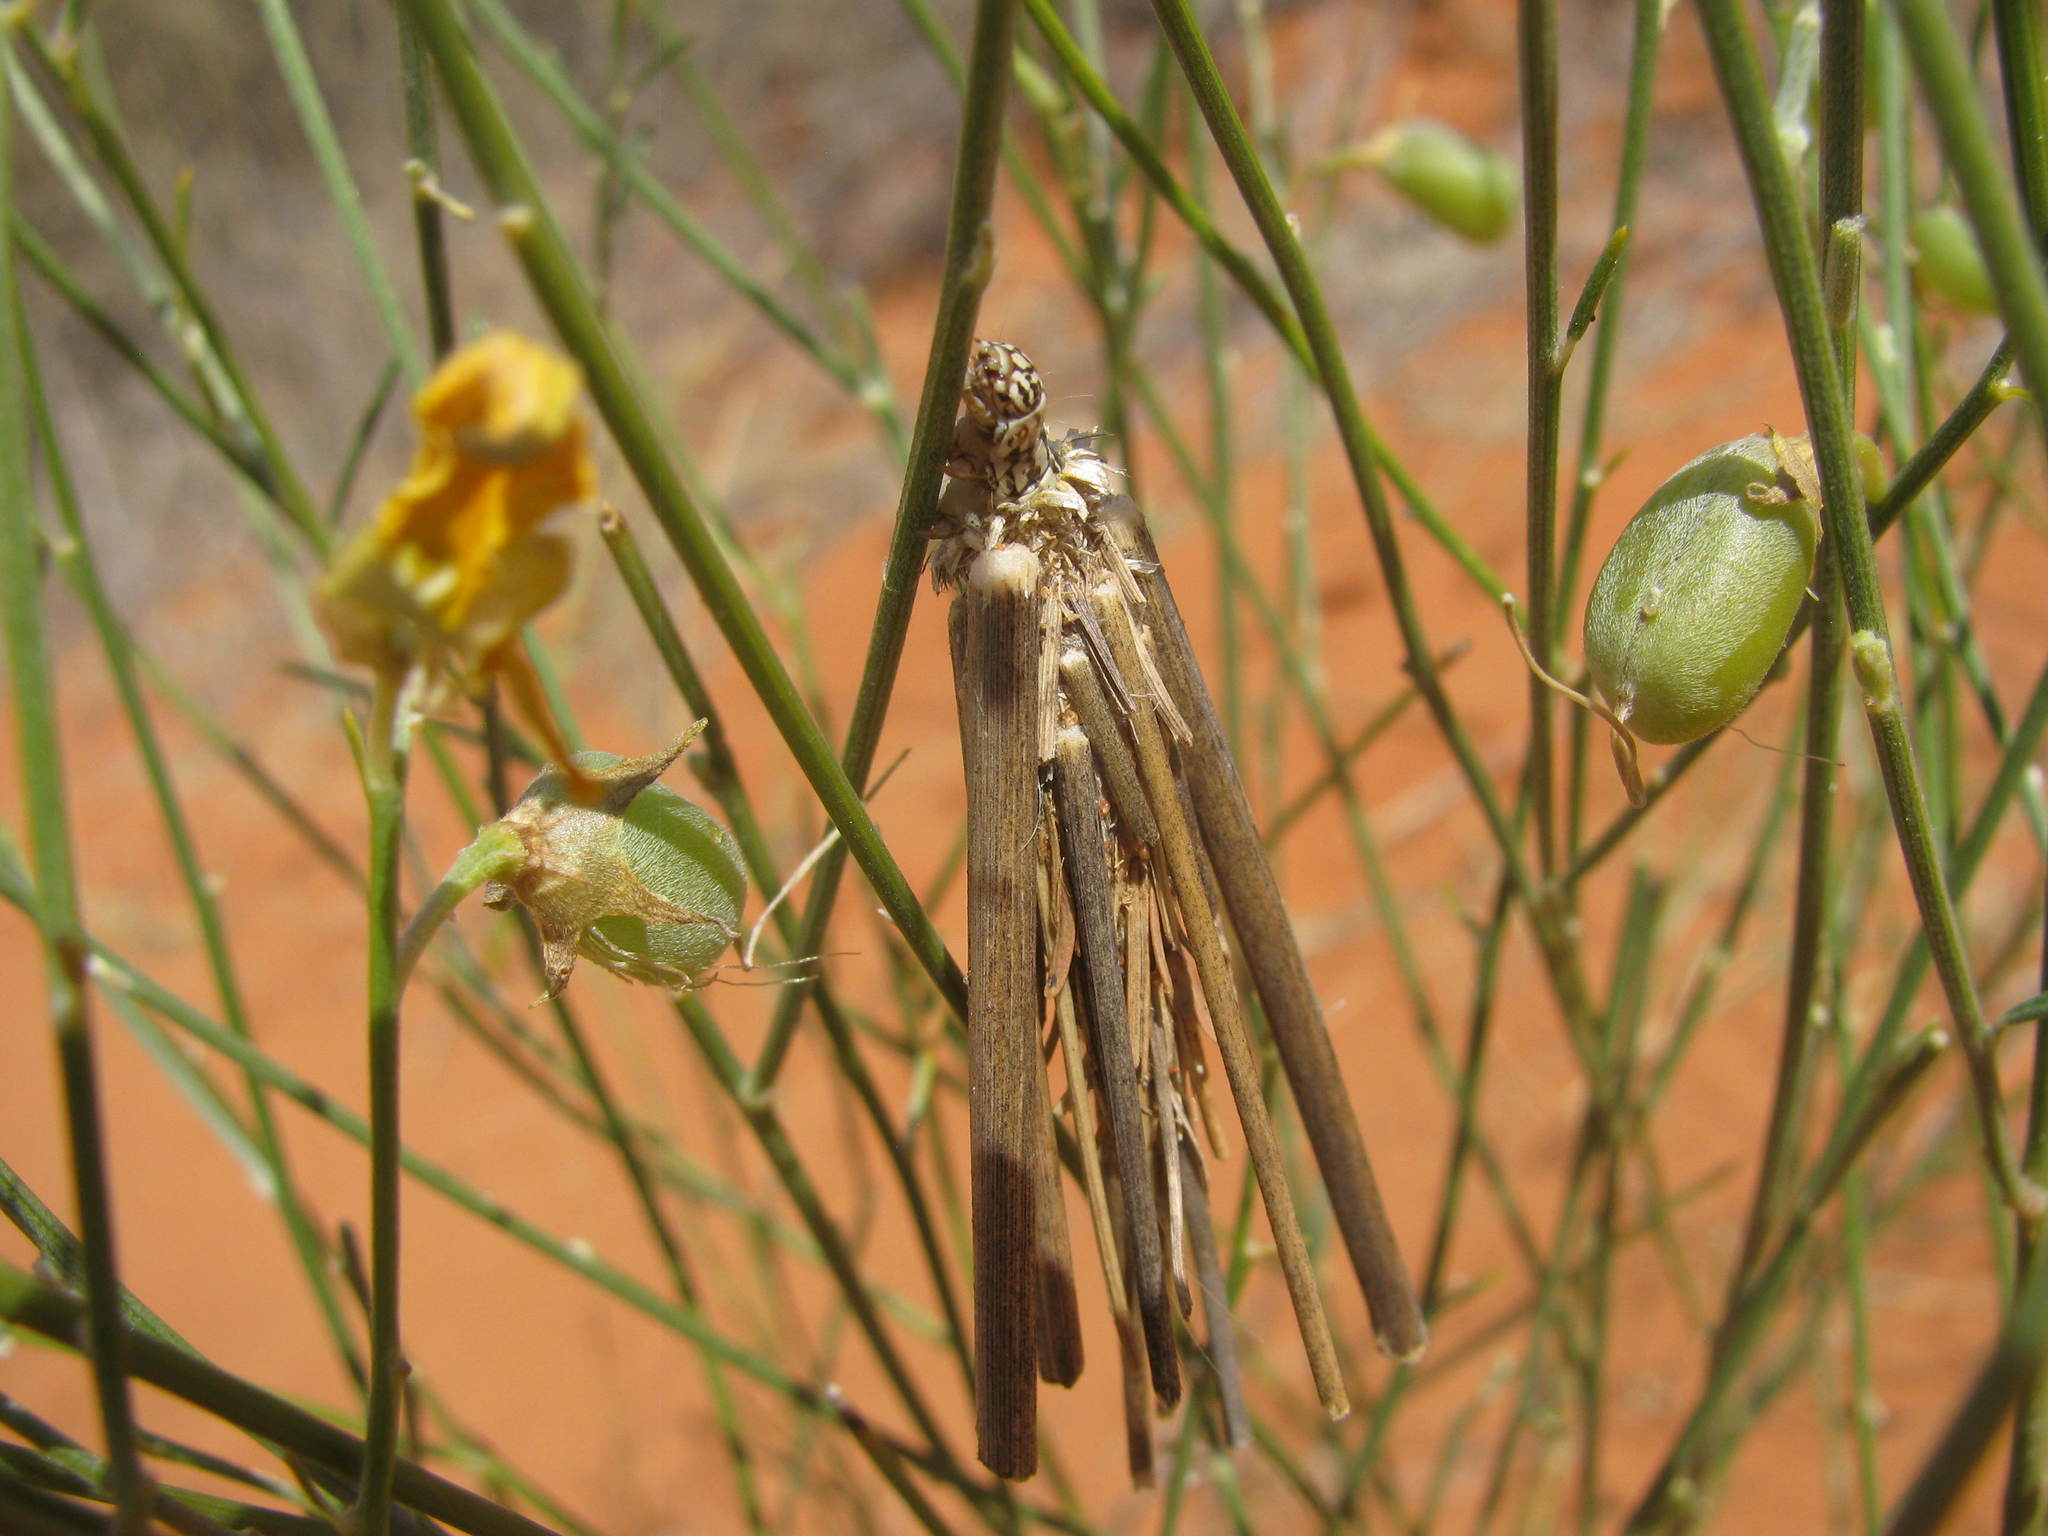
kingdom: Animalia
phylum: Arthropoda
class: Insecta
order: Lepidoptera
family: Psychidae
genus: Oiketicoides
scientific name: Oiketicoides maledicta
